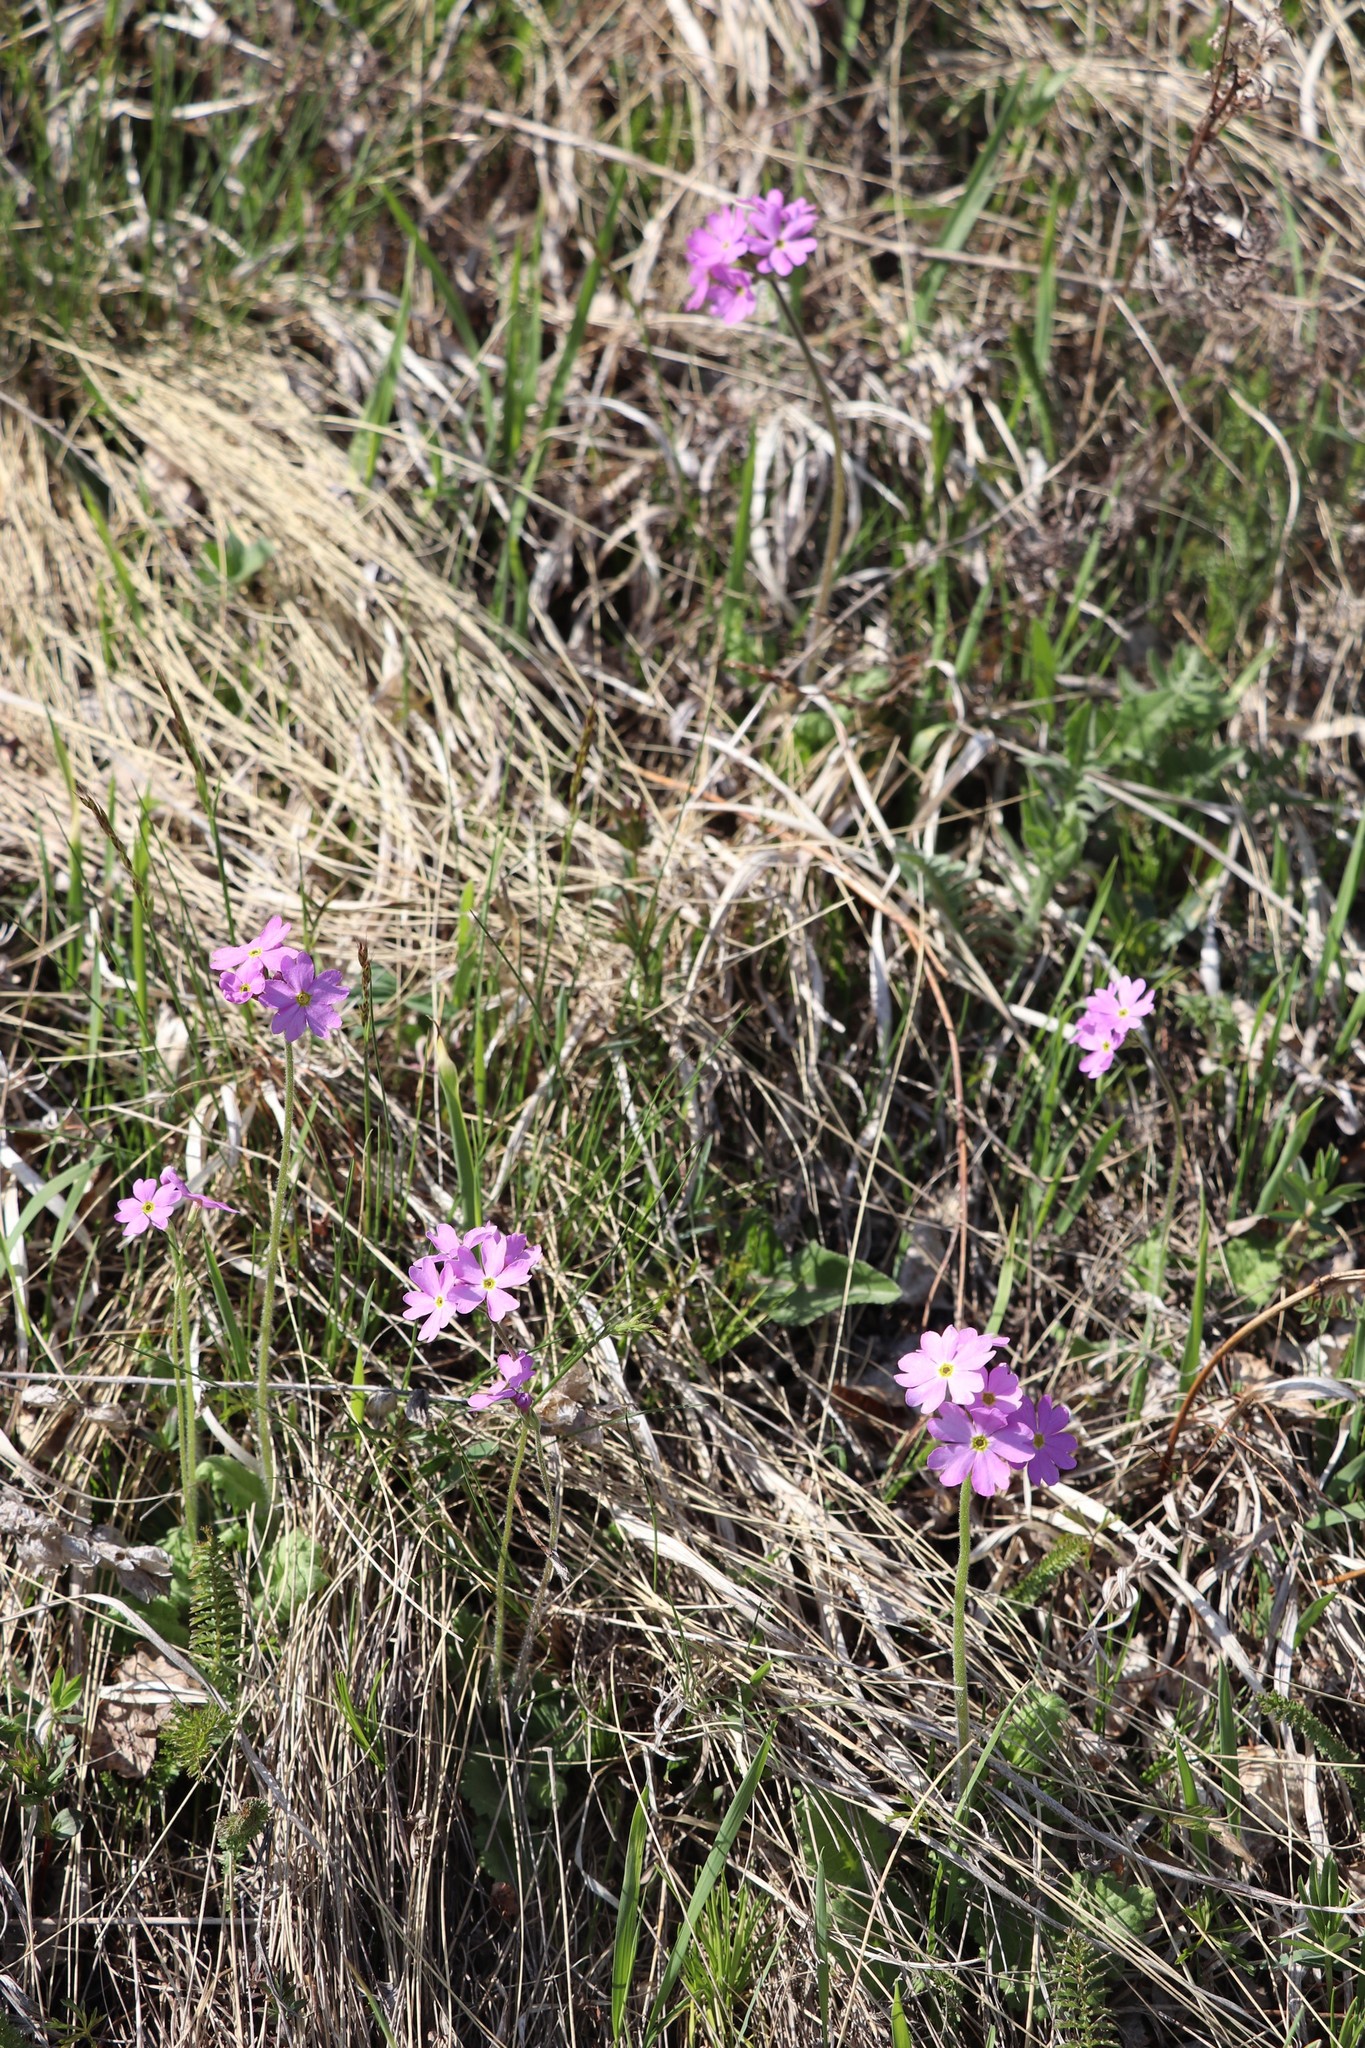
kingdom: Plantae
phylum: Tracheophyta
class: Magnoliopsida
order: Ericales
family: Primulaceae
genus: Primula
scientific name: Primula cortusoides
